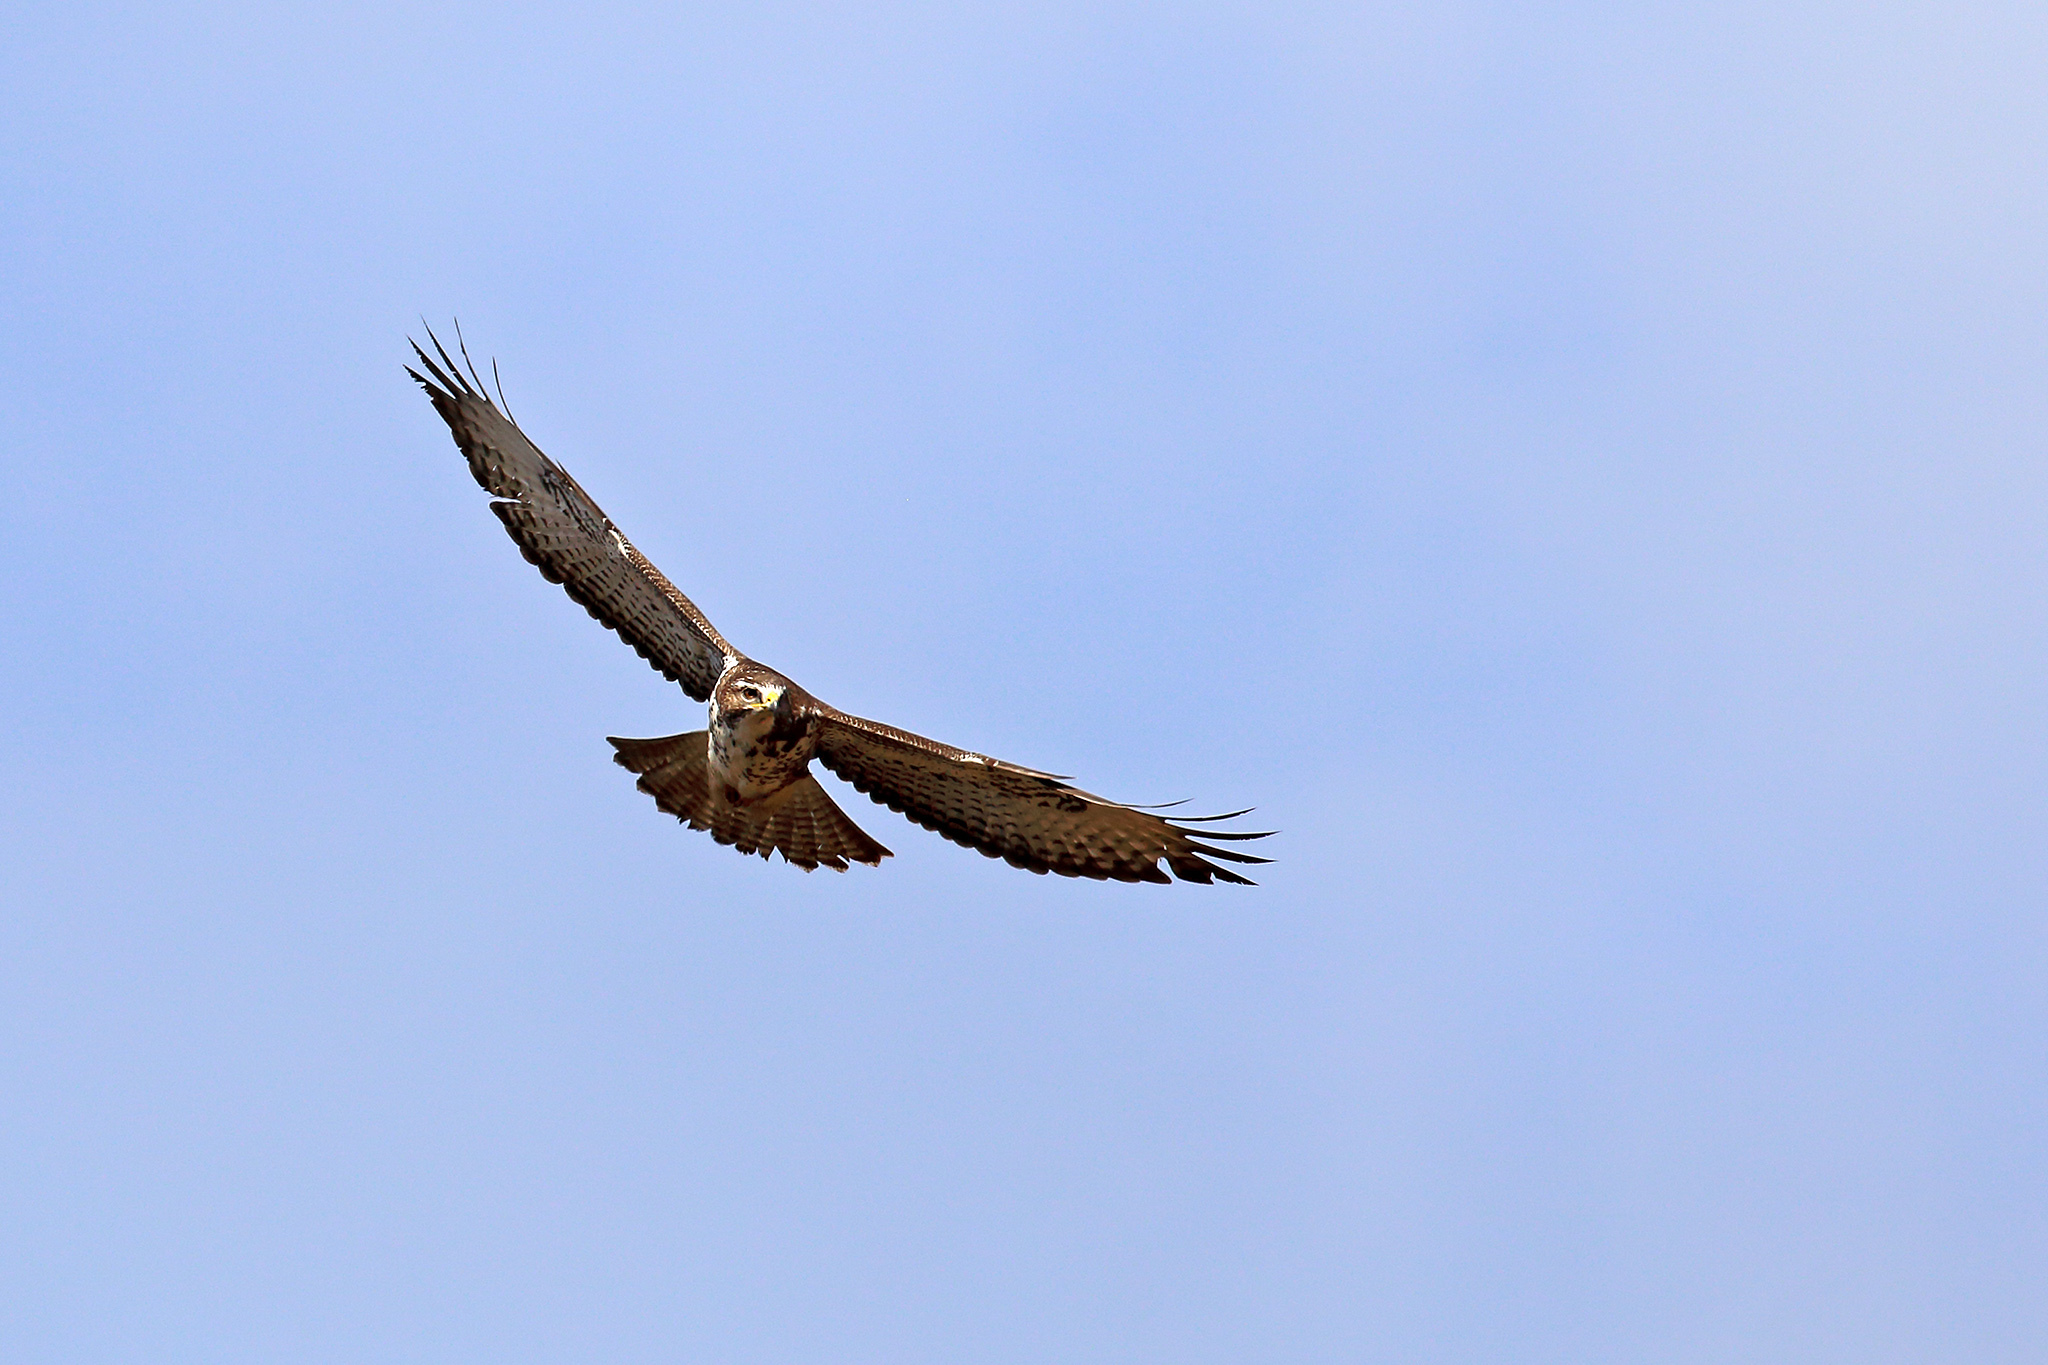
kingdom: Animalia
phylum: Chordata
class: Aves
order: Accipitriformes
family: Accipitridae
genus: Buteo
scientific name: Buteo buteo
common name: Common buzzard
